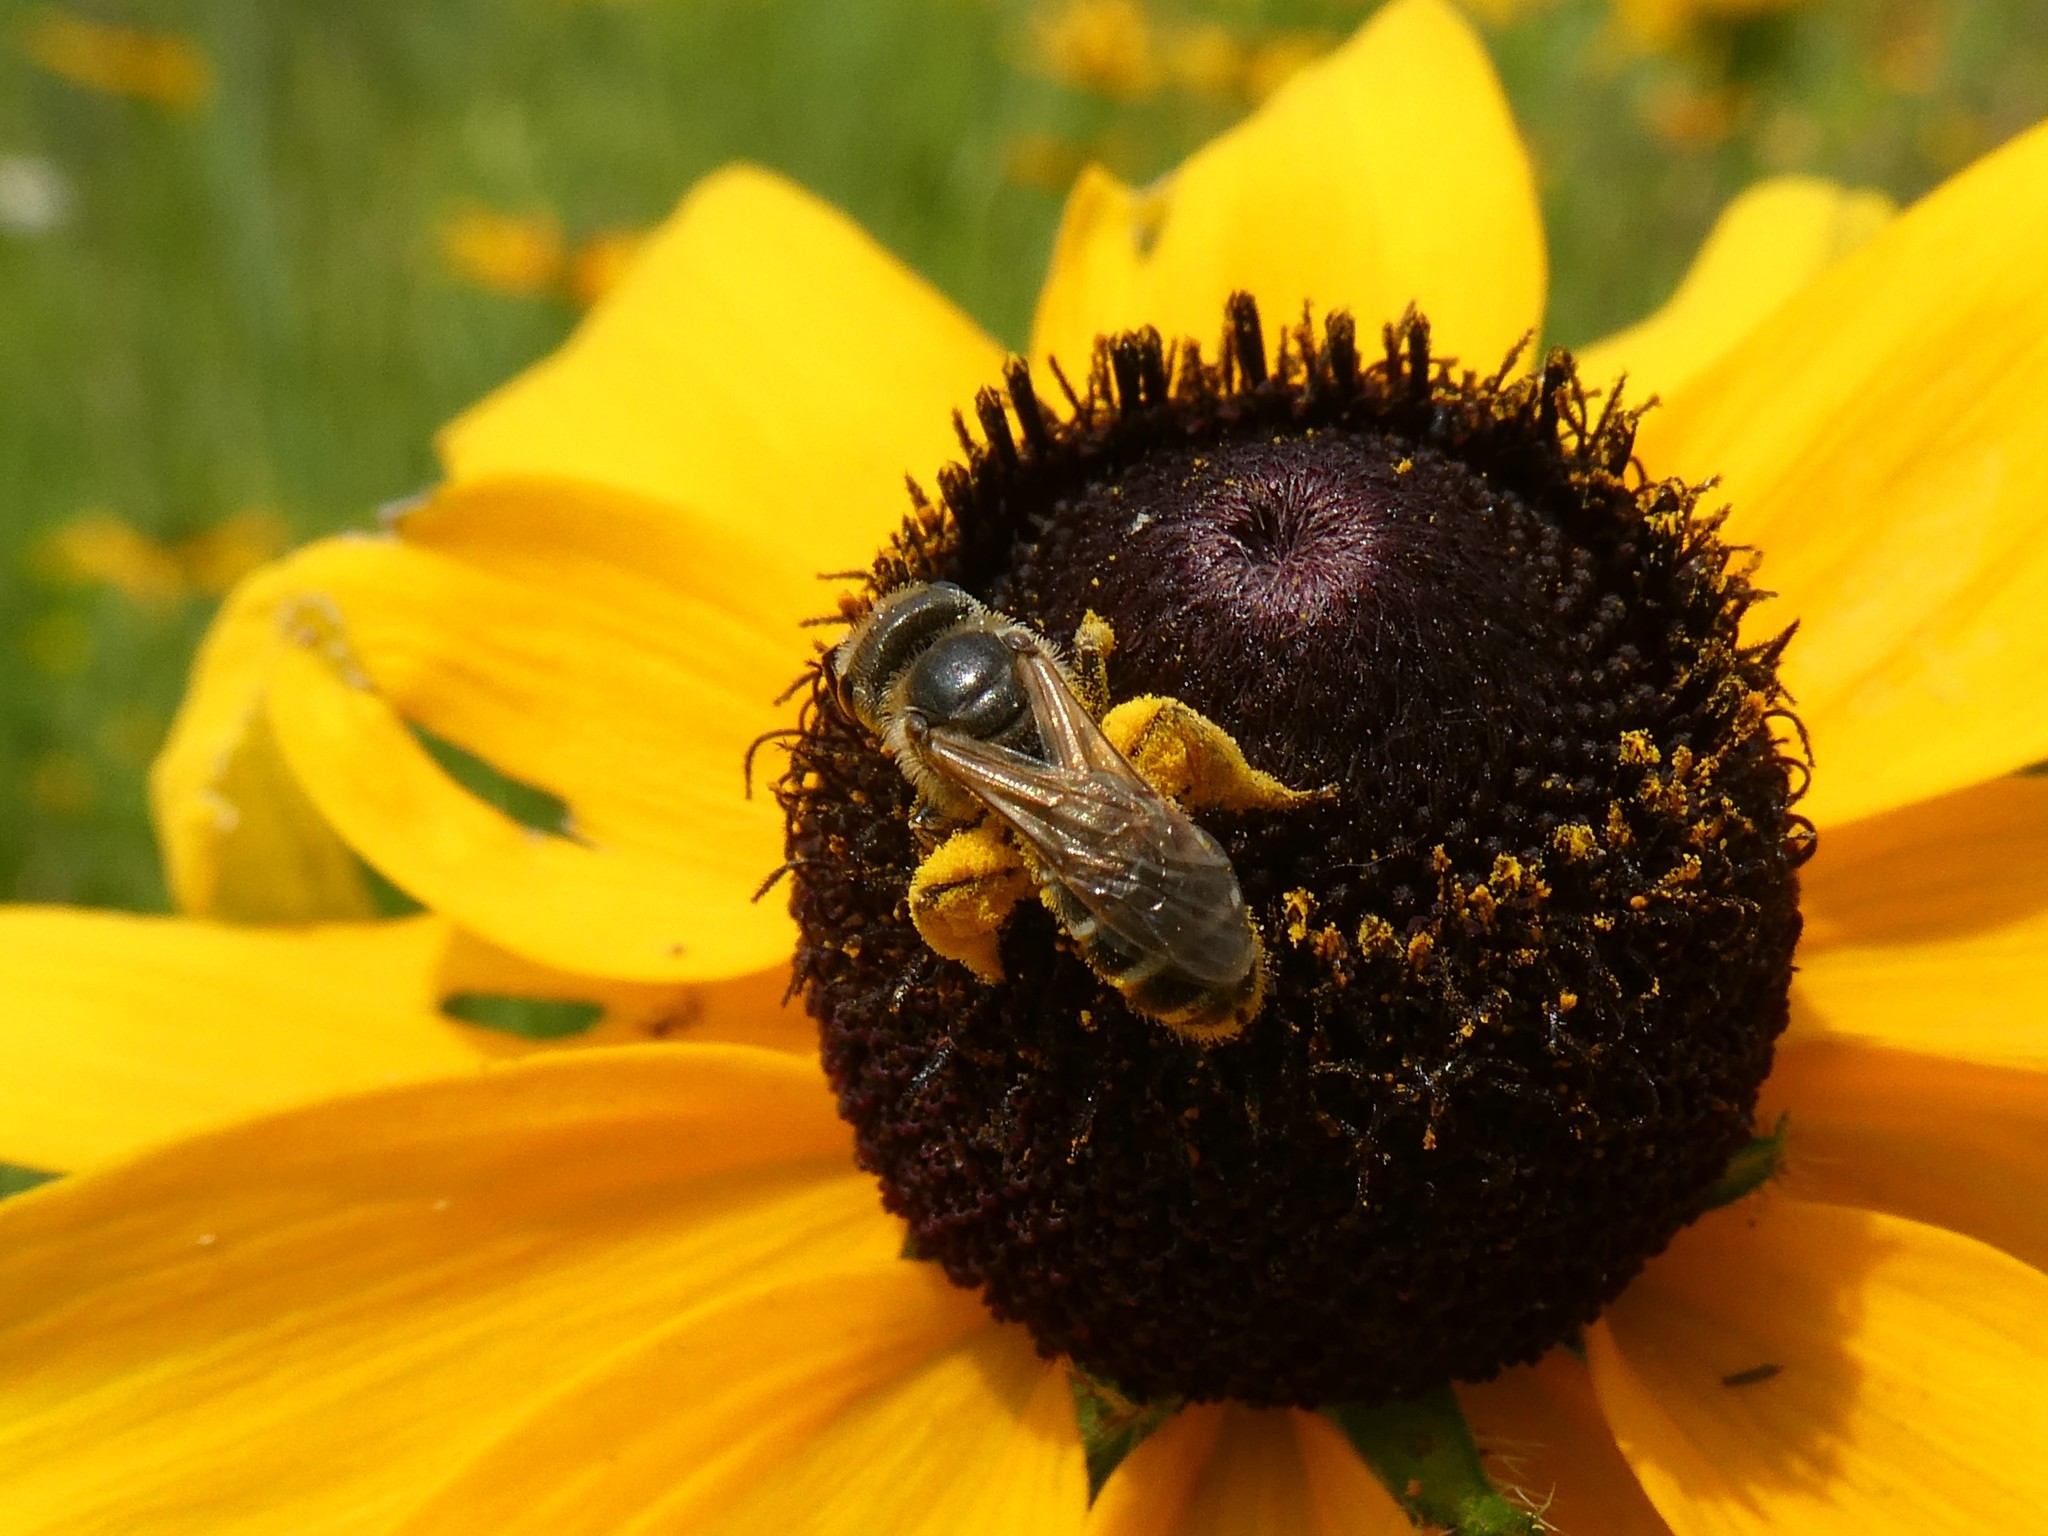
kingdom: Animalia
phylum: Arthropoda
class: Insecta
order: Hymenoptera
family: Halictidae
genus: Halictus
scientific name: Halictus ligatus
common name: Ligated furrow bee
